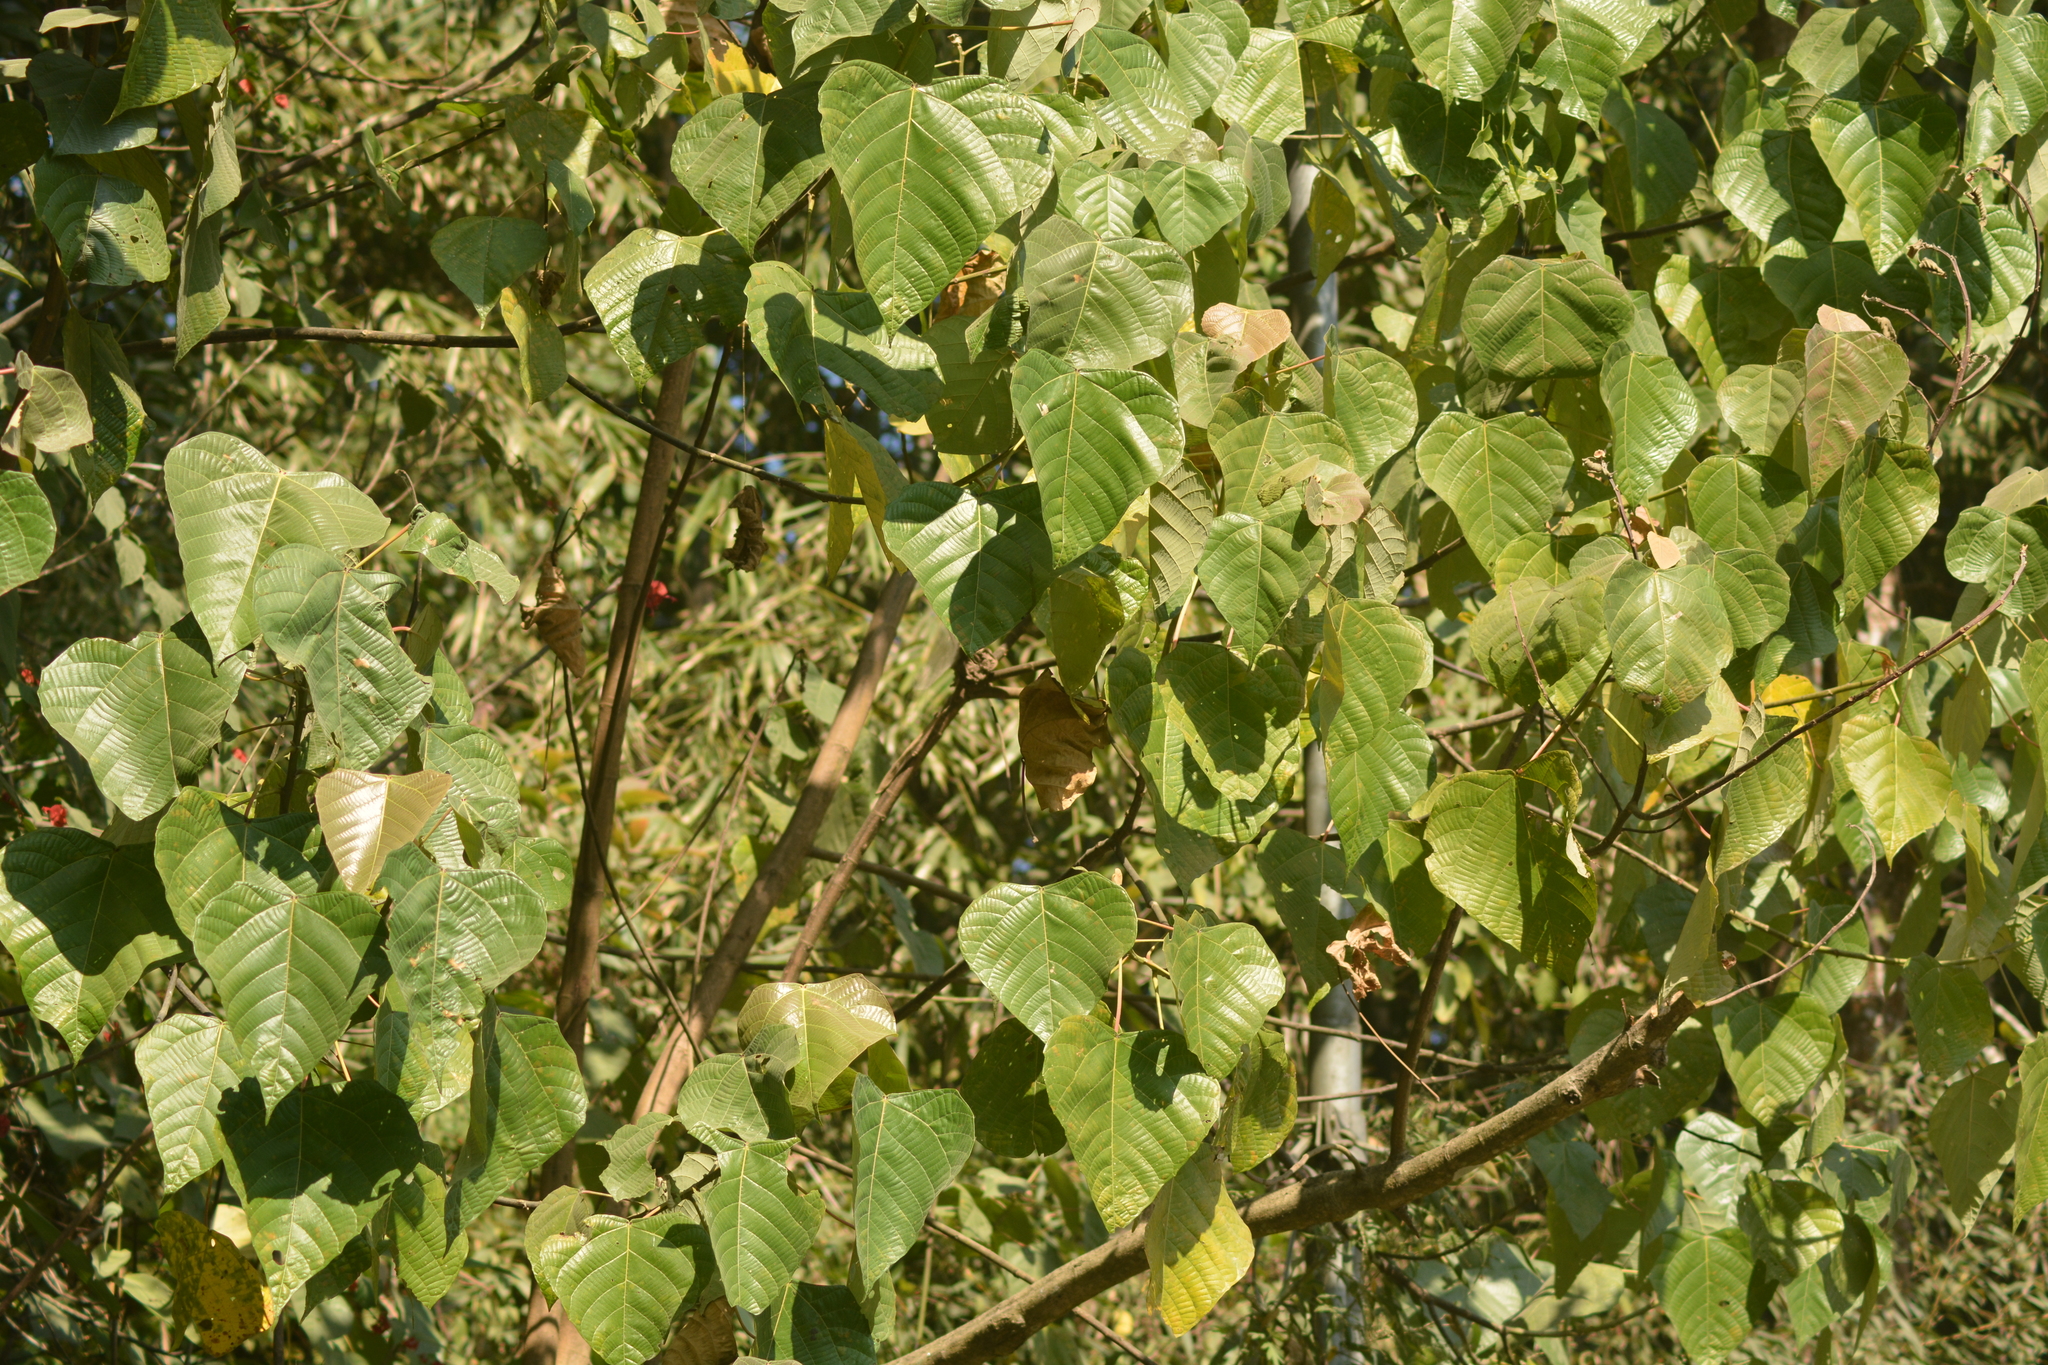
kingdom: Plantae
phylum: Tracheophyta
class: Magnoliopsida
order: Malpighiales
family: Euphorbiaceae
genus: Macaranga
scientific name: Macaranga denticulata
